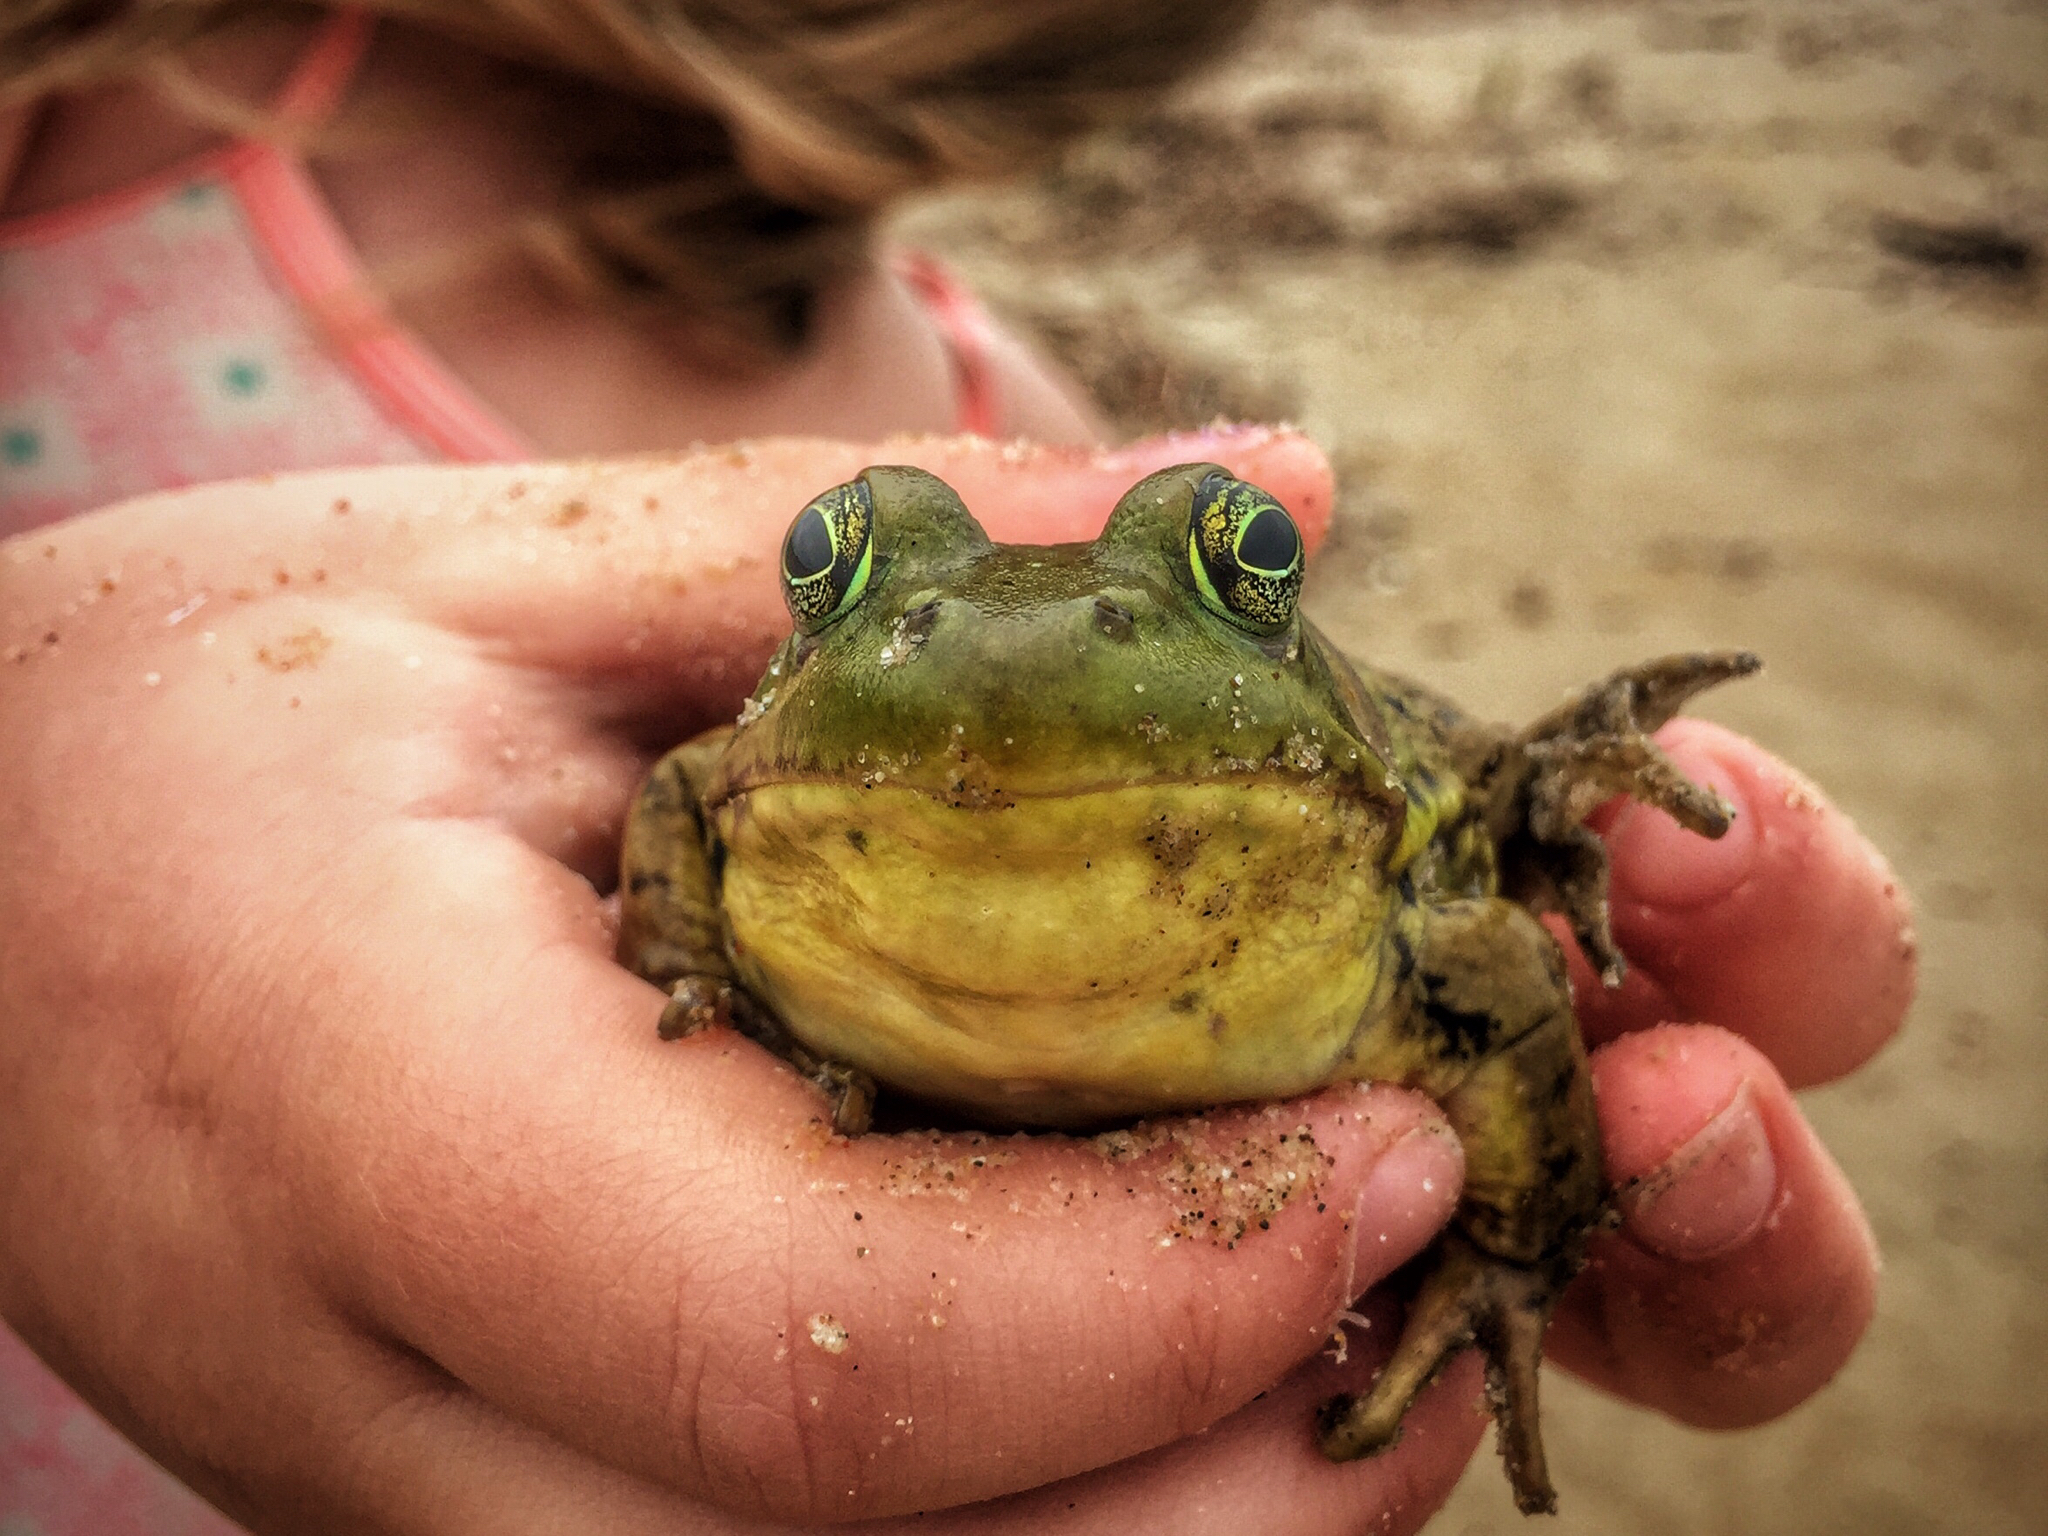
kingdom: Animalia
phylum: Chordata
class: Amphibia
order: Anura
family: Ranidae
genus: Lithobates
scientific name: Lithobates catesbeianus
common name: American bullfrog
